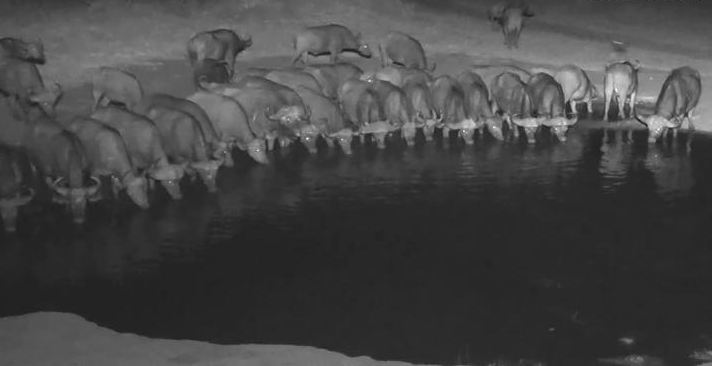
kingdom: Animalia
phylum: Chordata
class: Mammalia
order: Artiodactyla
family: Bovidae
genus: Syncerus
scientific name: Syncerus caffer
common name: African buffalo
